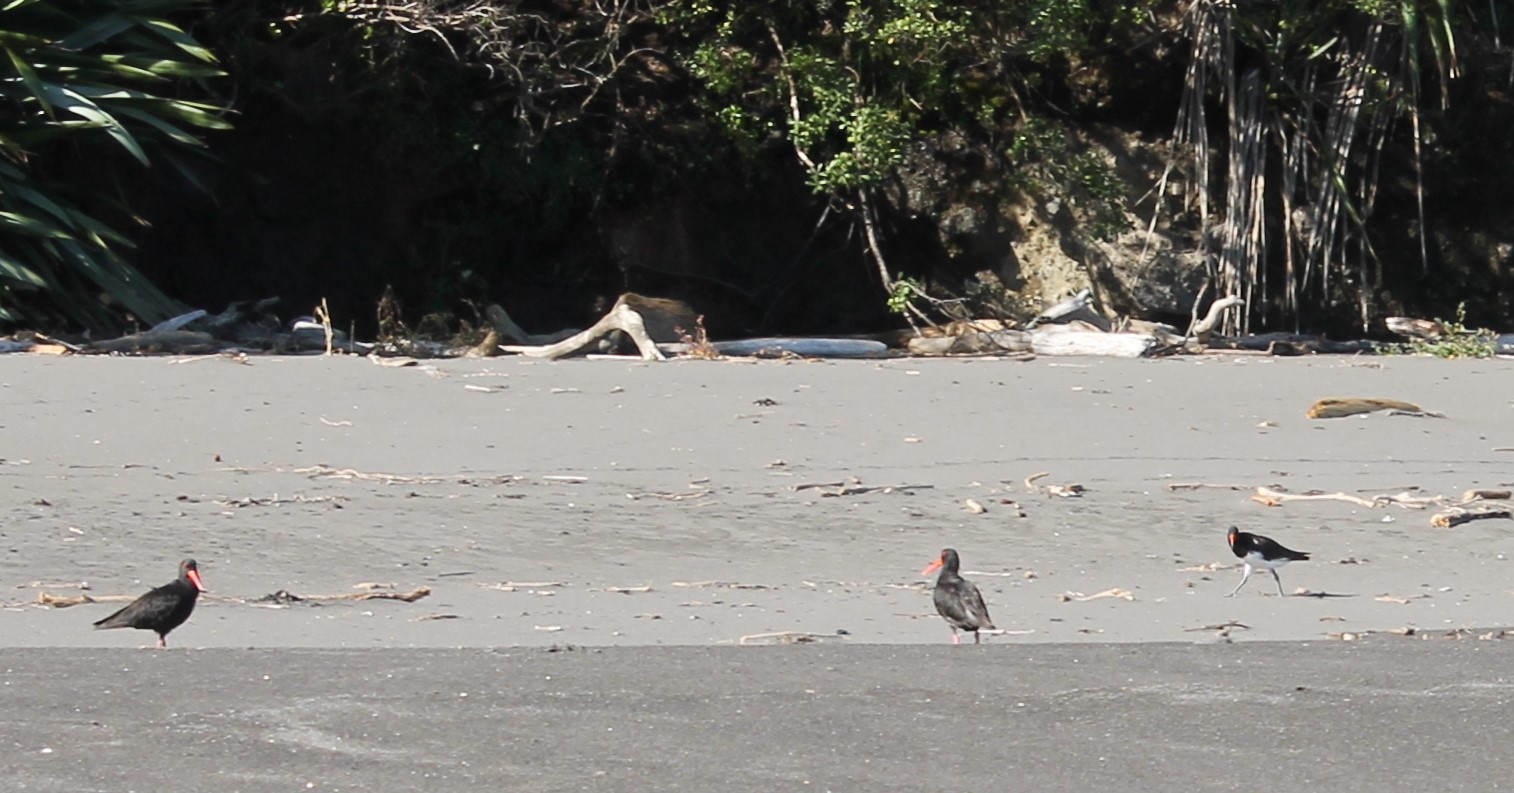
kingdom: Animalia
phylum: Chordata
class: Aves
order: Charadriiformes
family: Haematopodidae
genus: Haematopus
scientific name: Haematopus unicolor
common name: Variable oystercatcher
